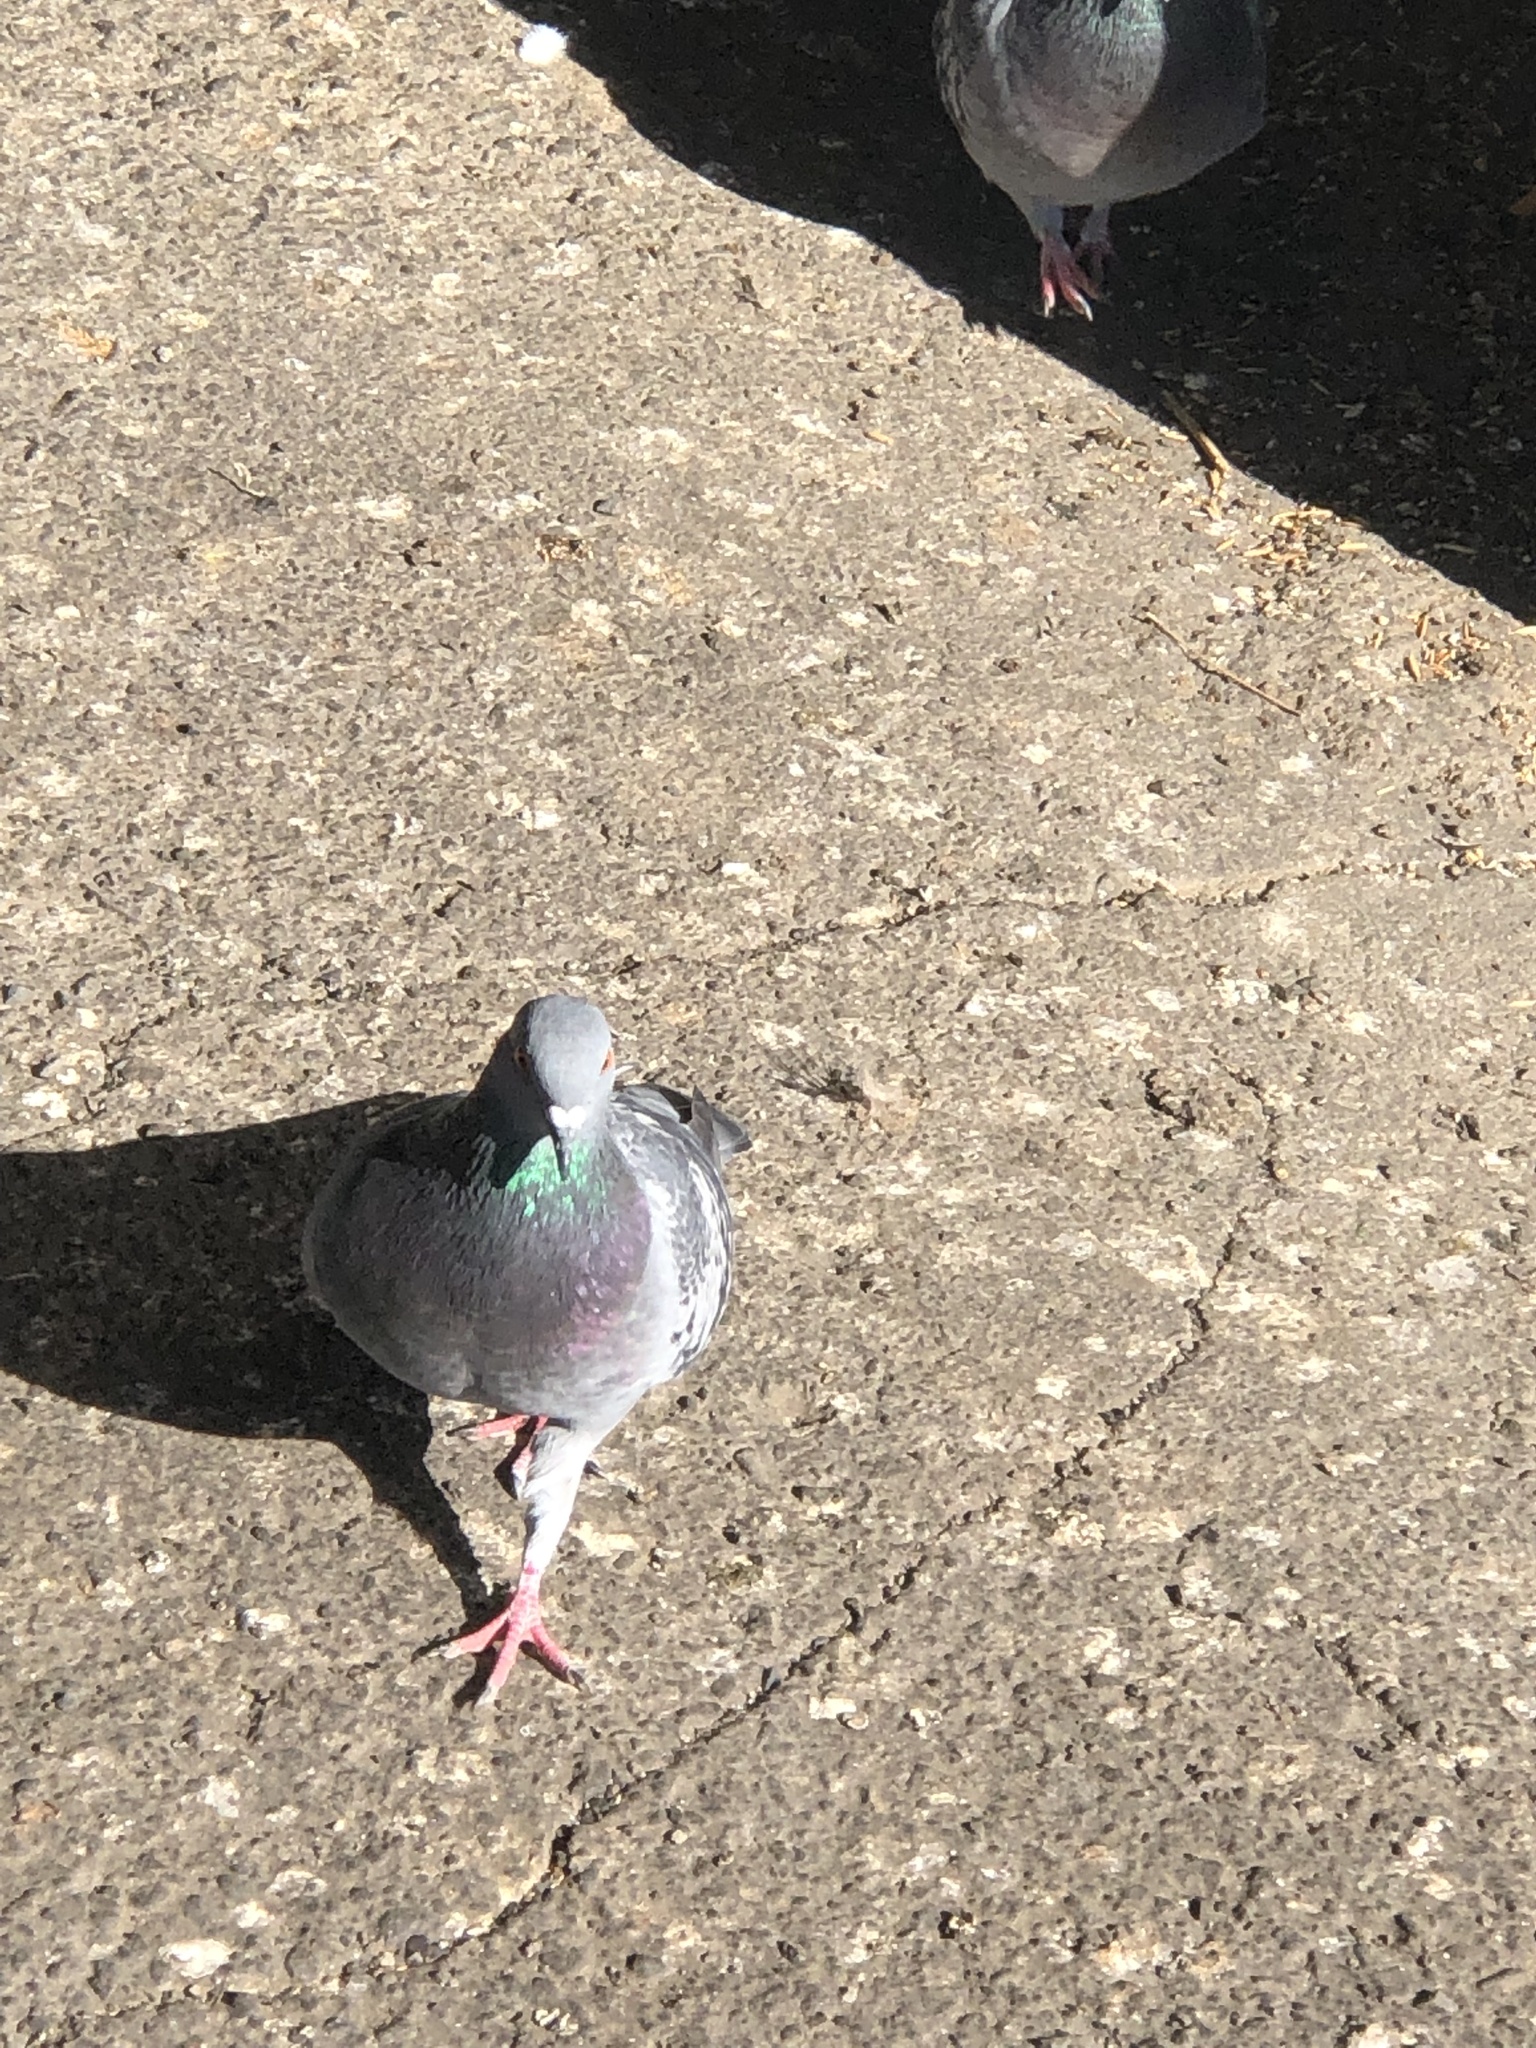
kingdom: Animalia
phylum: Chordata
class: Aves
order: Columbiformes
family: Columbidae
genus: Columba
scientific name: Columba livia
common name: Rock pigeon
